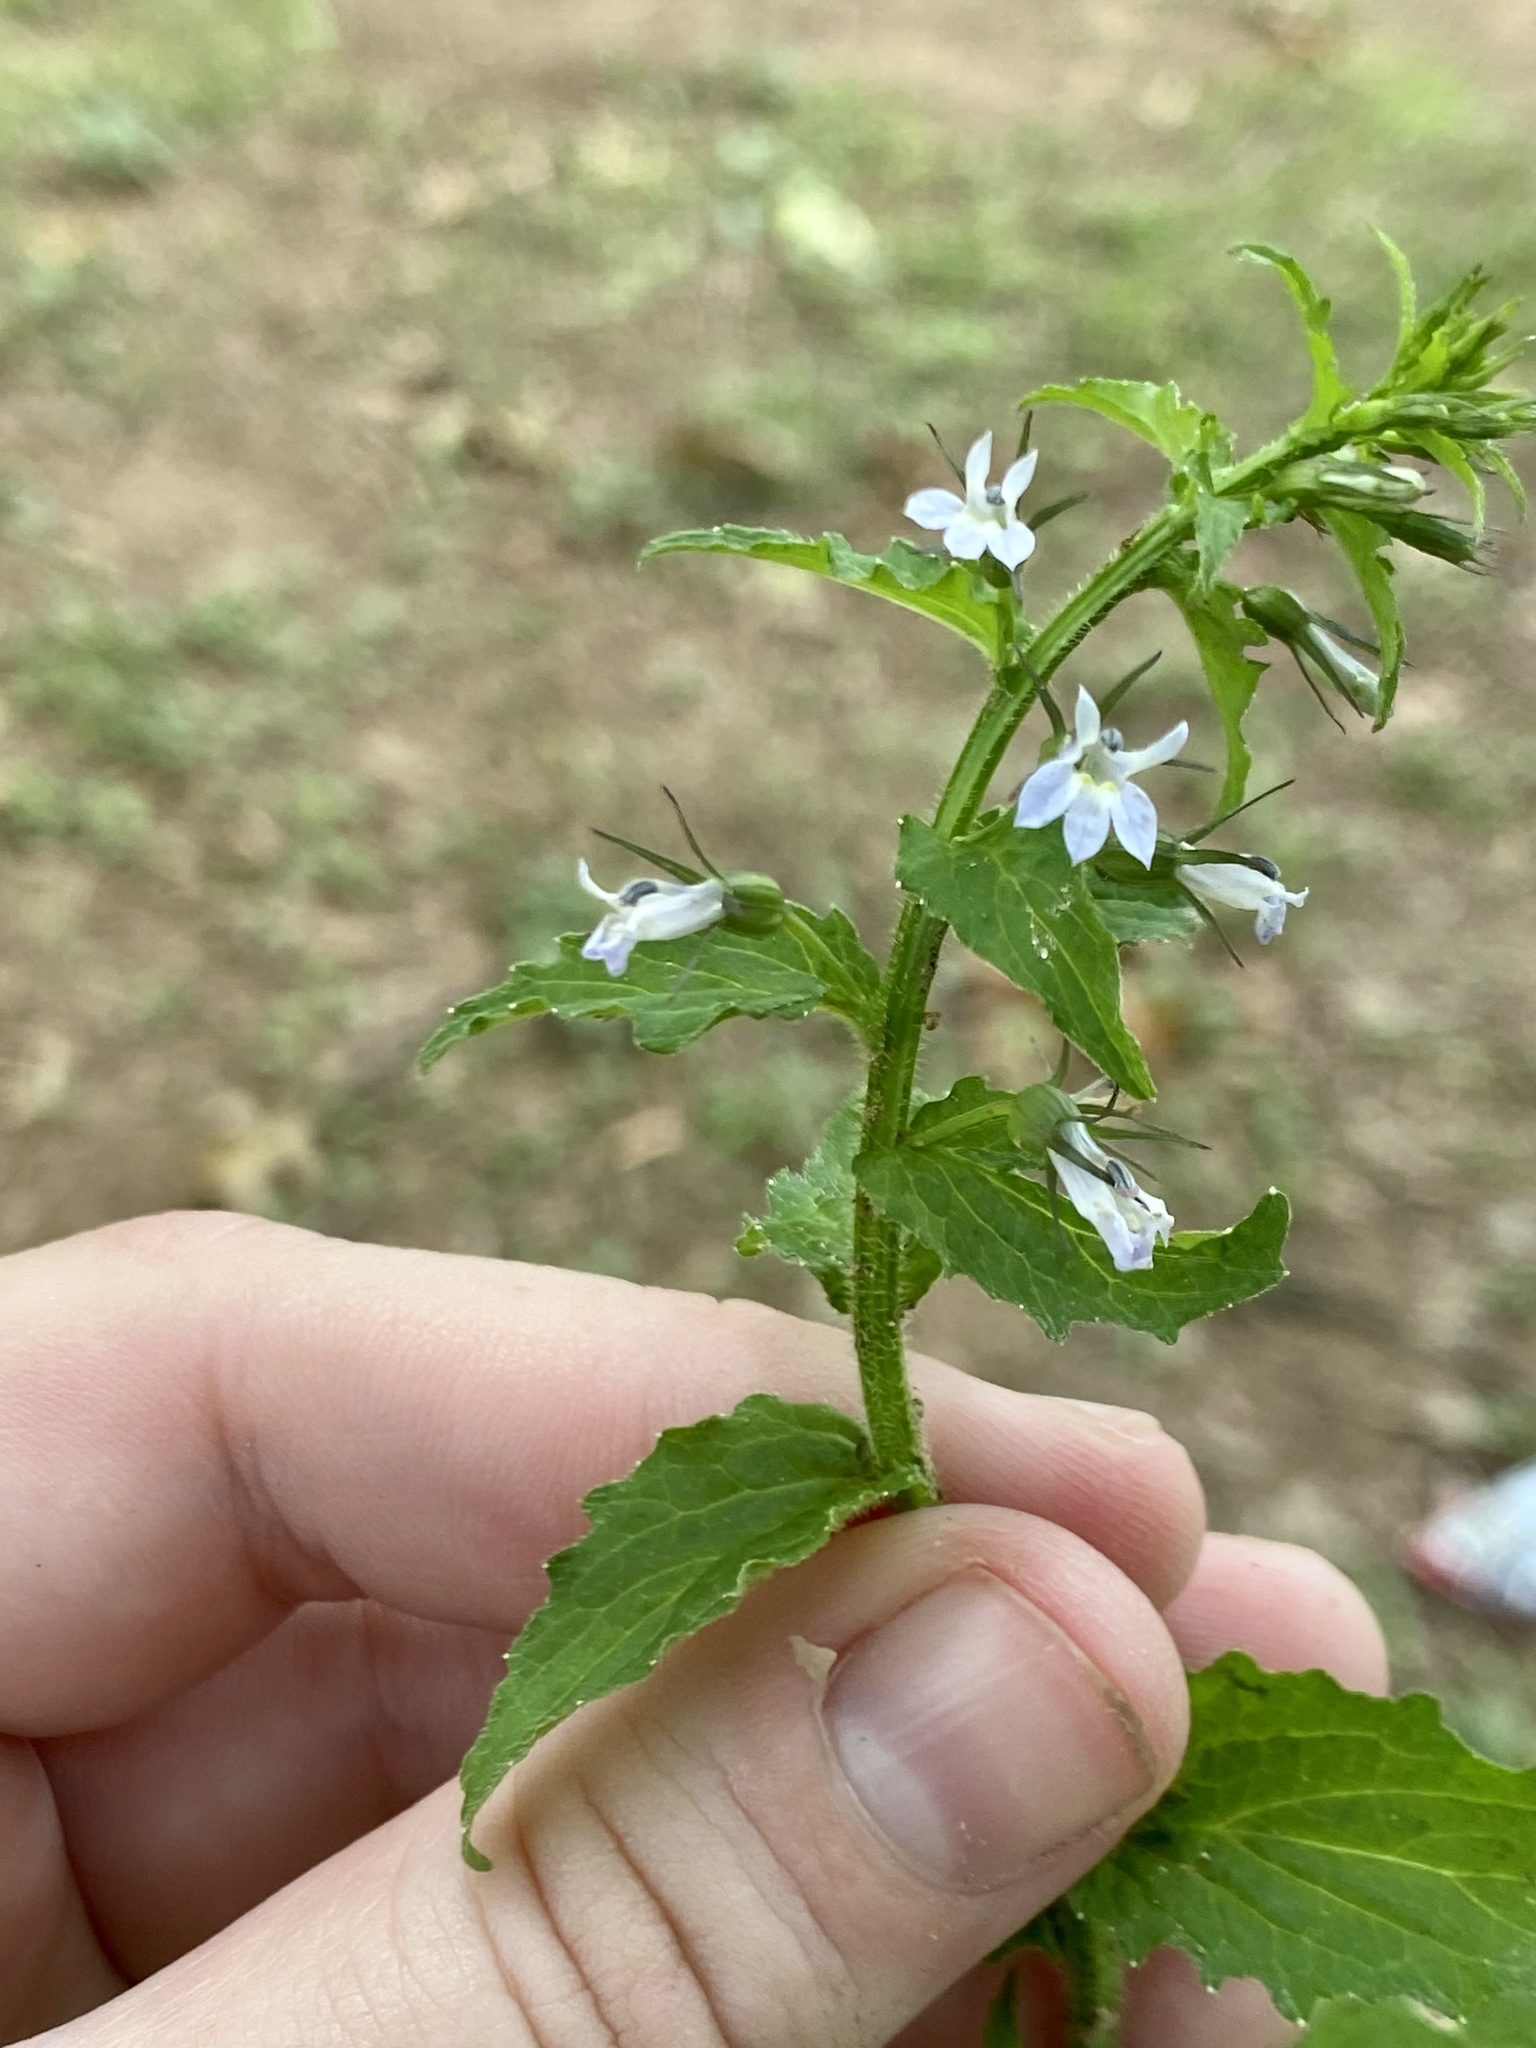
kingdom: Plantae
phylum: Tracheophyta
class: Magnoliopsida
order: Asterales
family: Campanulaceae
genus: Lobelia
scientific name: Lobelia inflata
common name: Indian tobacco
